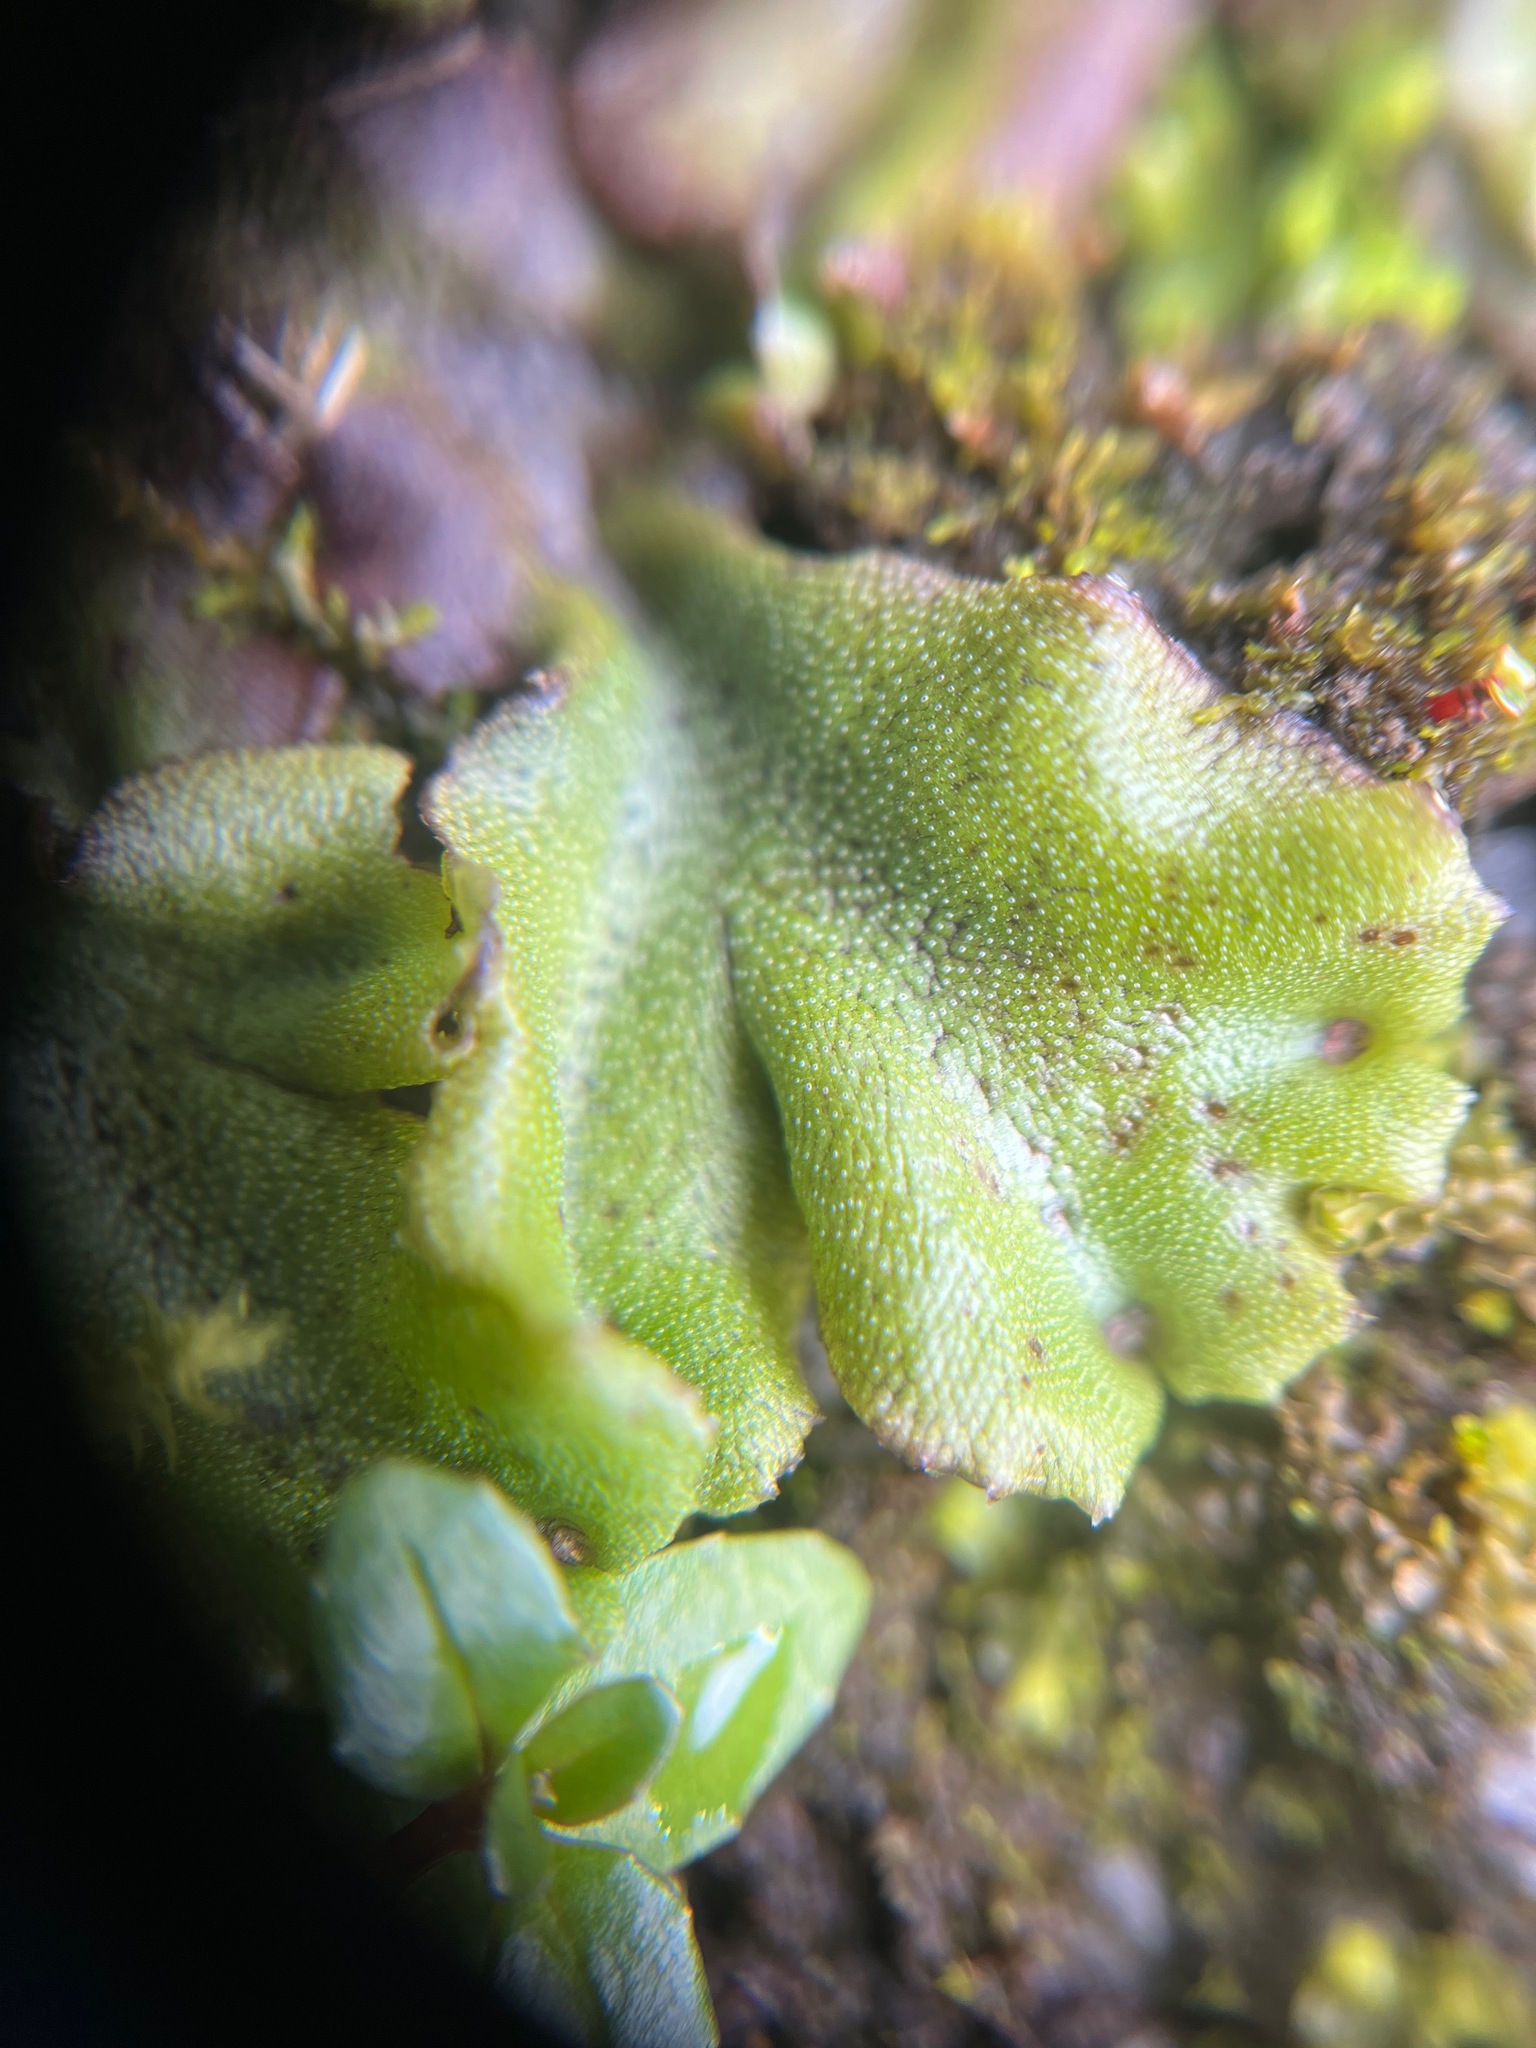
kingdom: Plantae
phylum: Marchantiophyta
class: Marchantiopsida
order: Marchantiales
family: Marchantiaceae
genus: Marchantia
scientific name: Marchantia polymorpha
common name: Common liverwort
